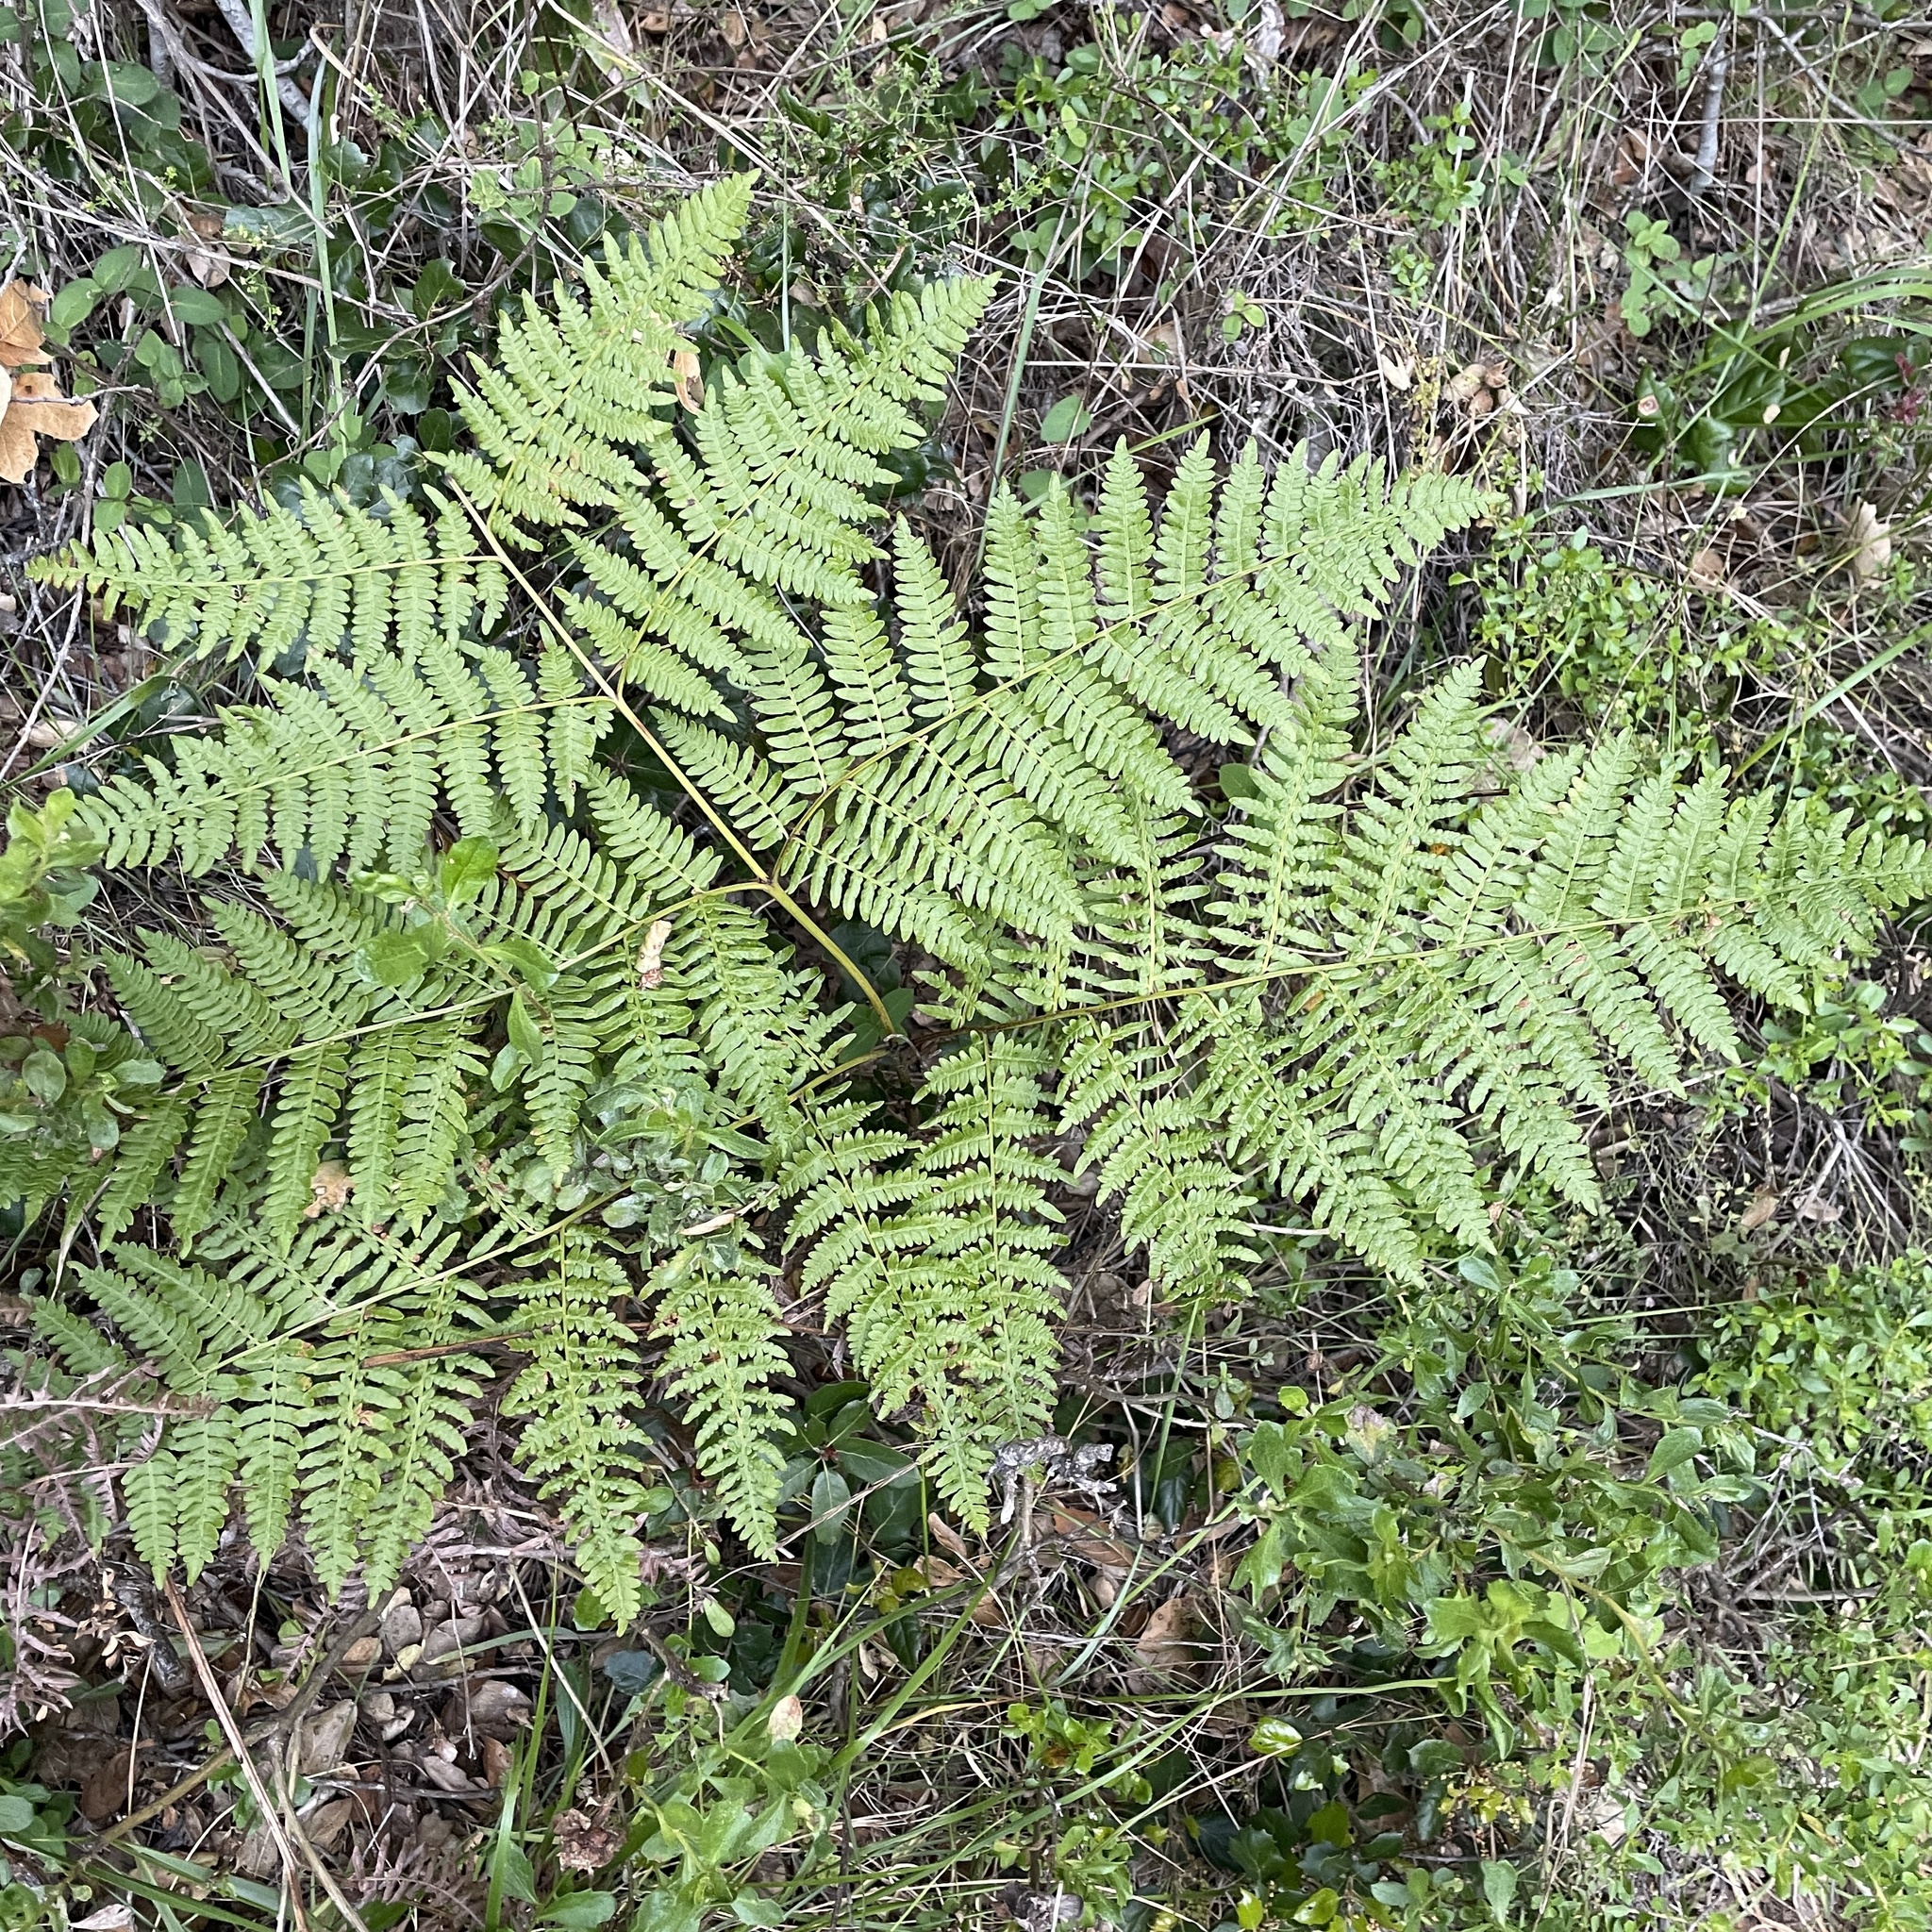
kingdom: Plantae
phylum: Tracheophyta
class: Polypodiopsida
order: Polypodiales
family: Dennstaedtiaceae
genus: Pteridium
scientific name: Pteridium aquilinum
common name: Bracken
